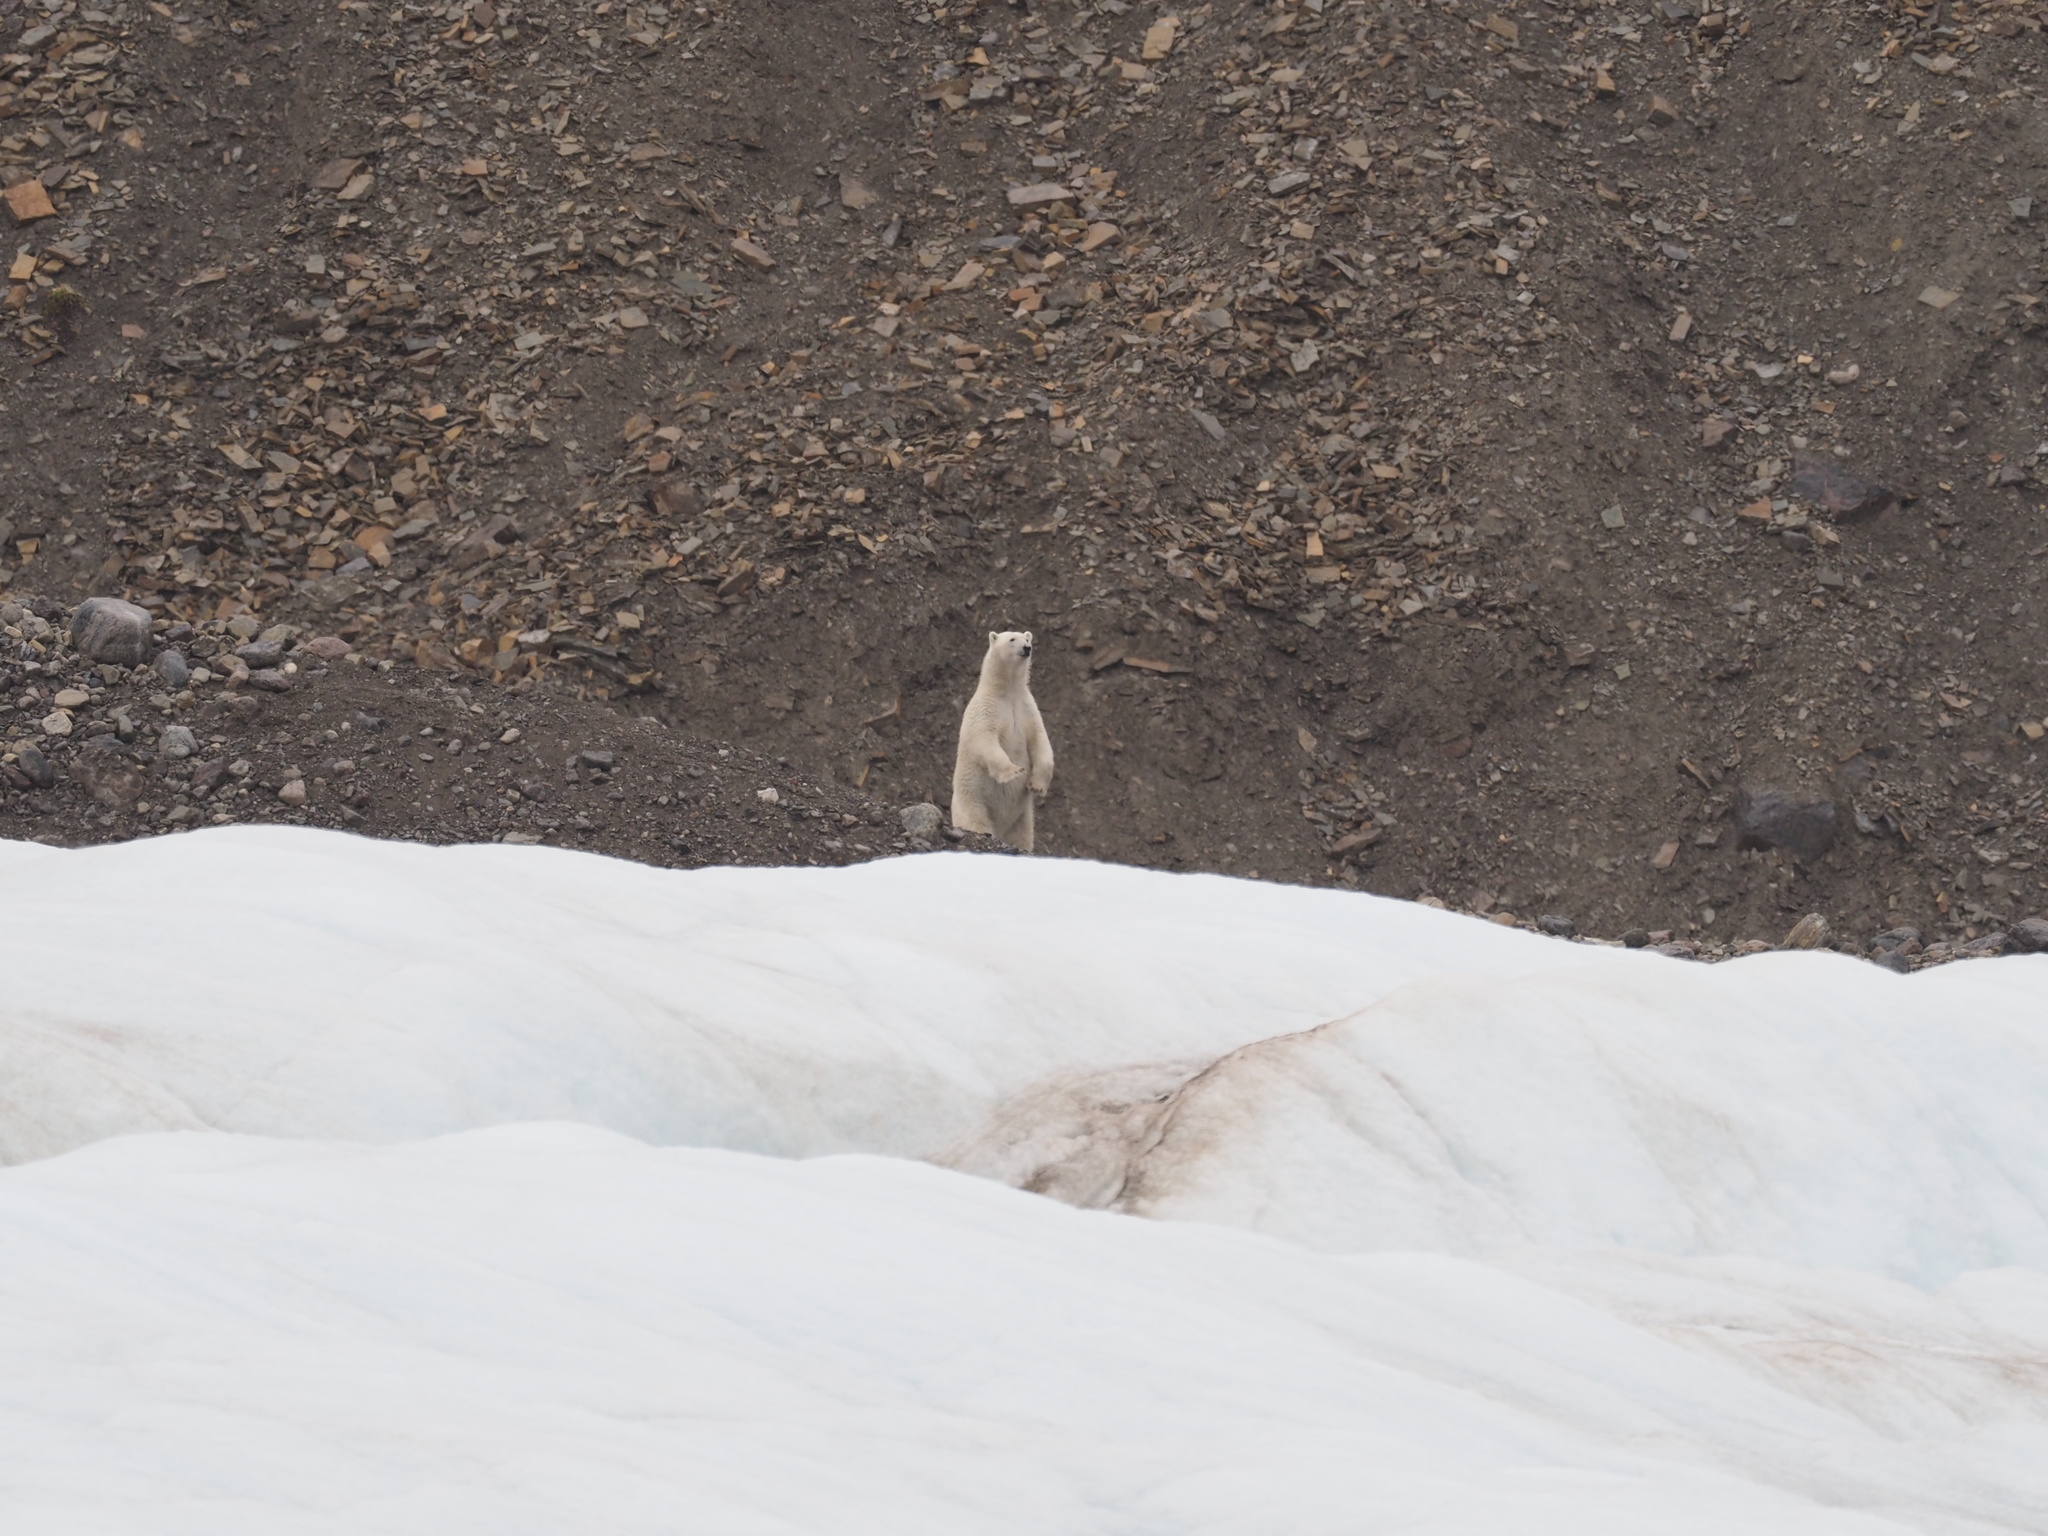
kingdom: Animalia
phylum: Chordata
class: Mammalia
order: Carnivora
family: Ursidae
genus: Ursus
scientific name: Ursus maritimus
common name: Polar bear
